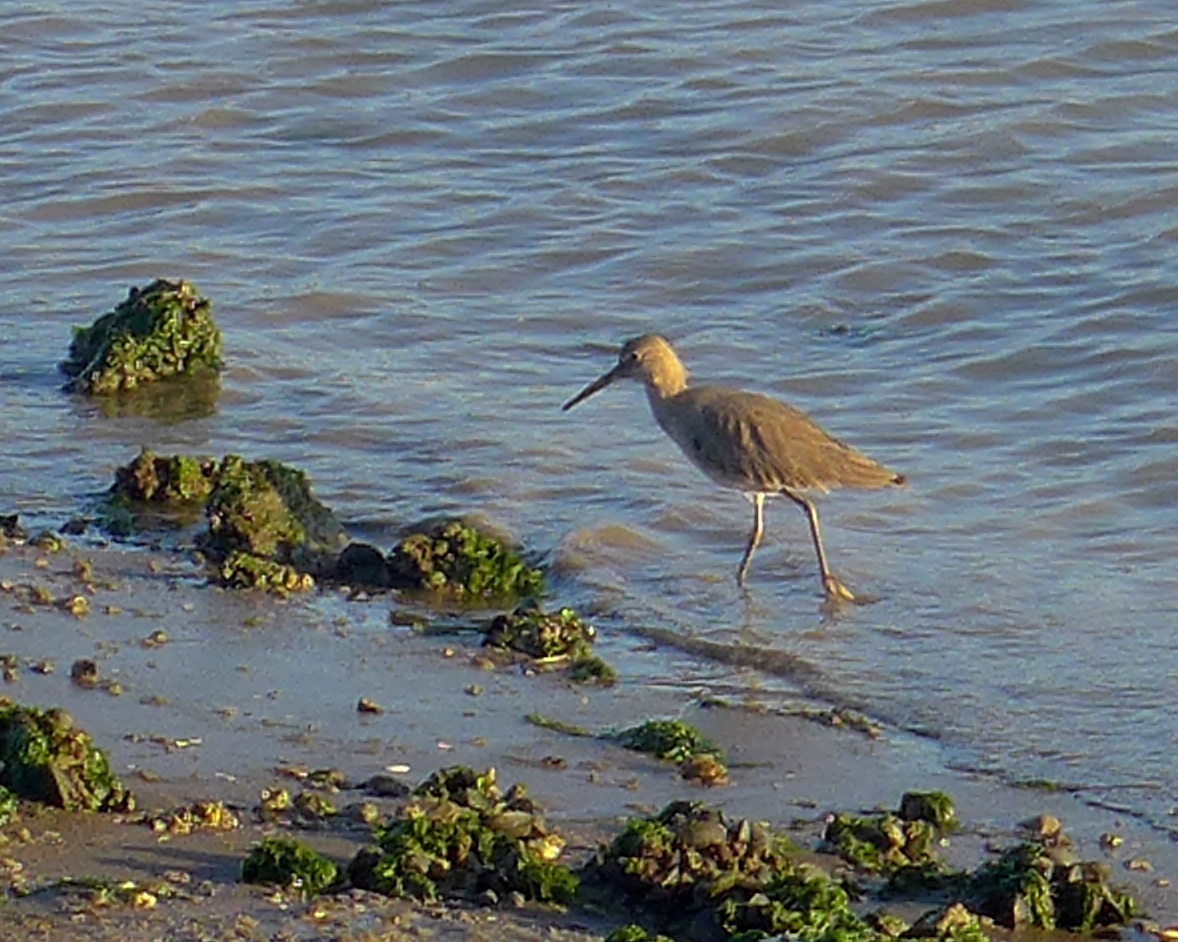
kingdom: Animalia
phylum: Chordata
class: Aves
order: Charadriiformes
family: Scolopacidae
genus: Tringa
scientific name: Tringa semipalmata
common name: Willet
